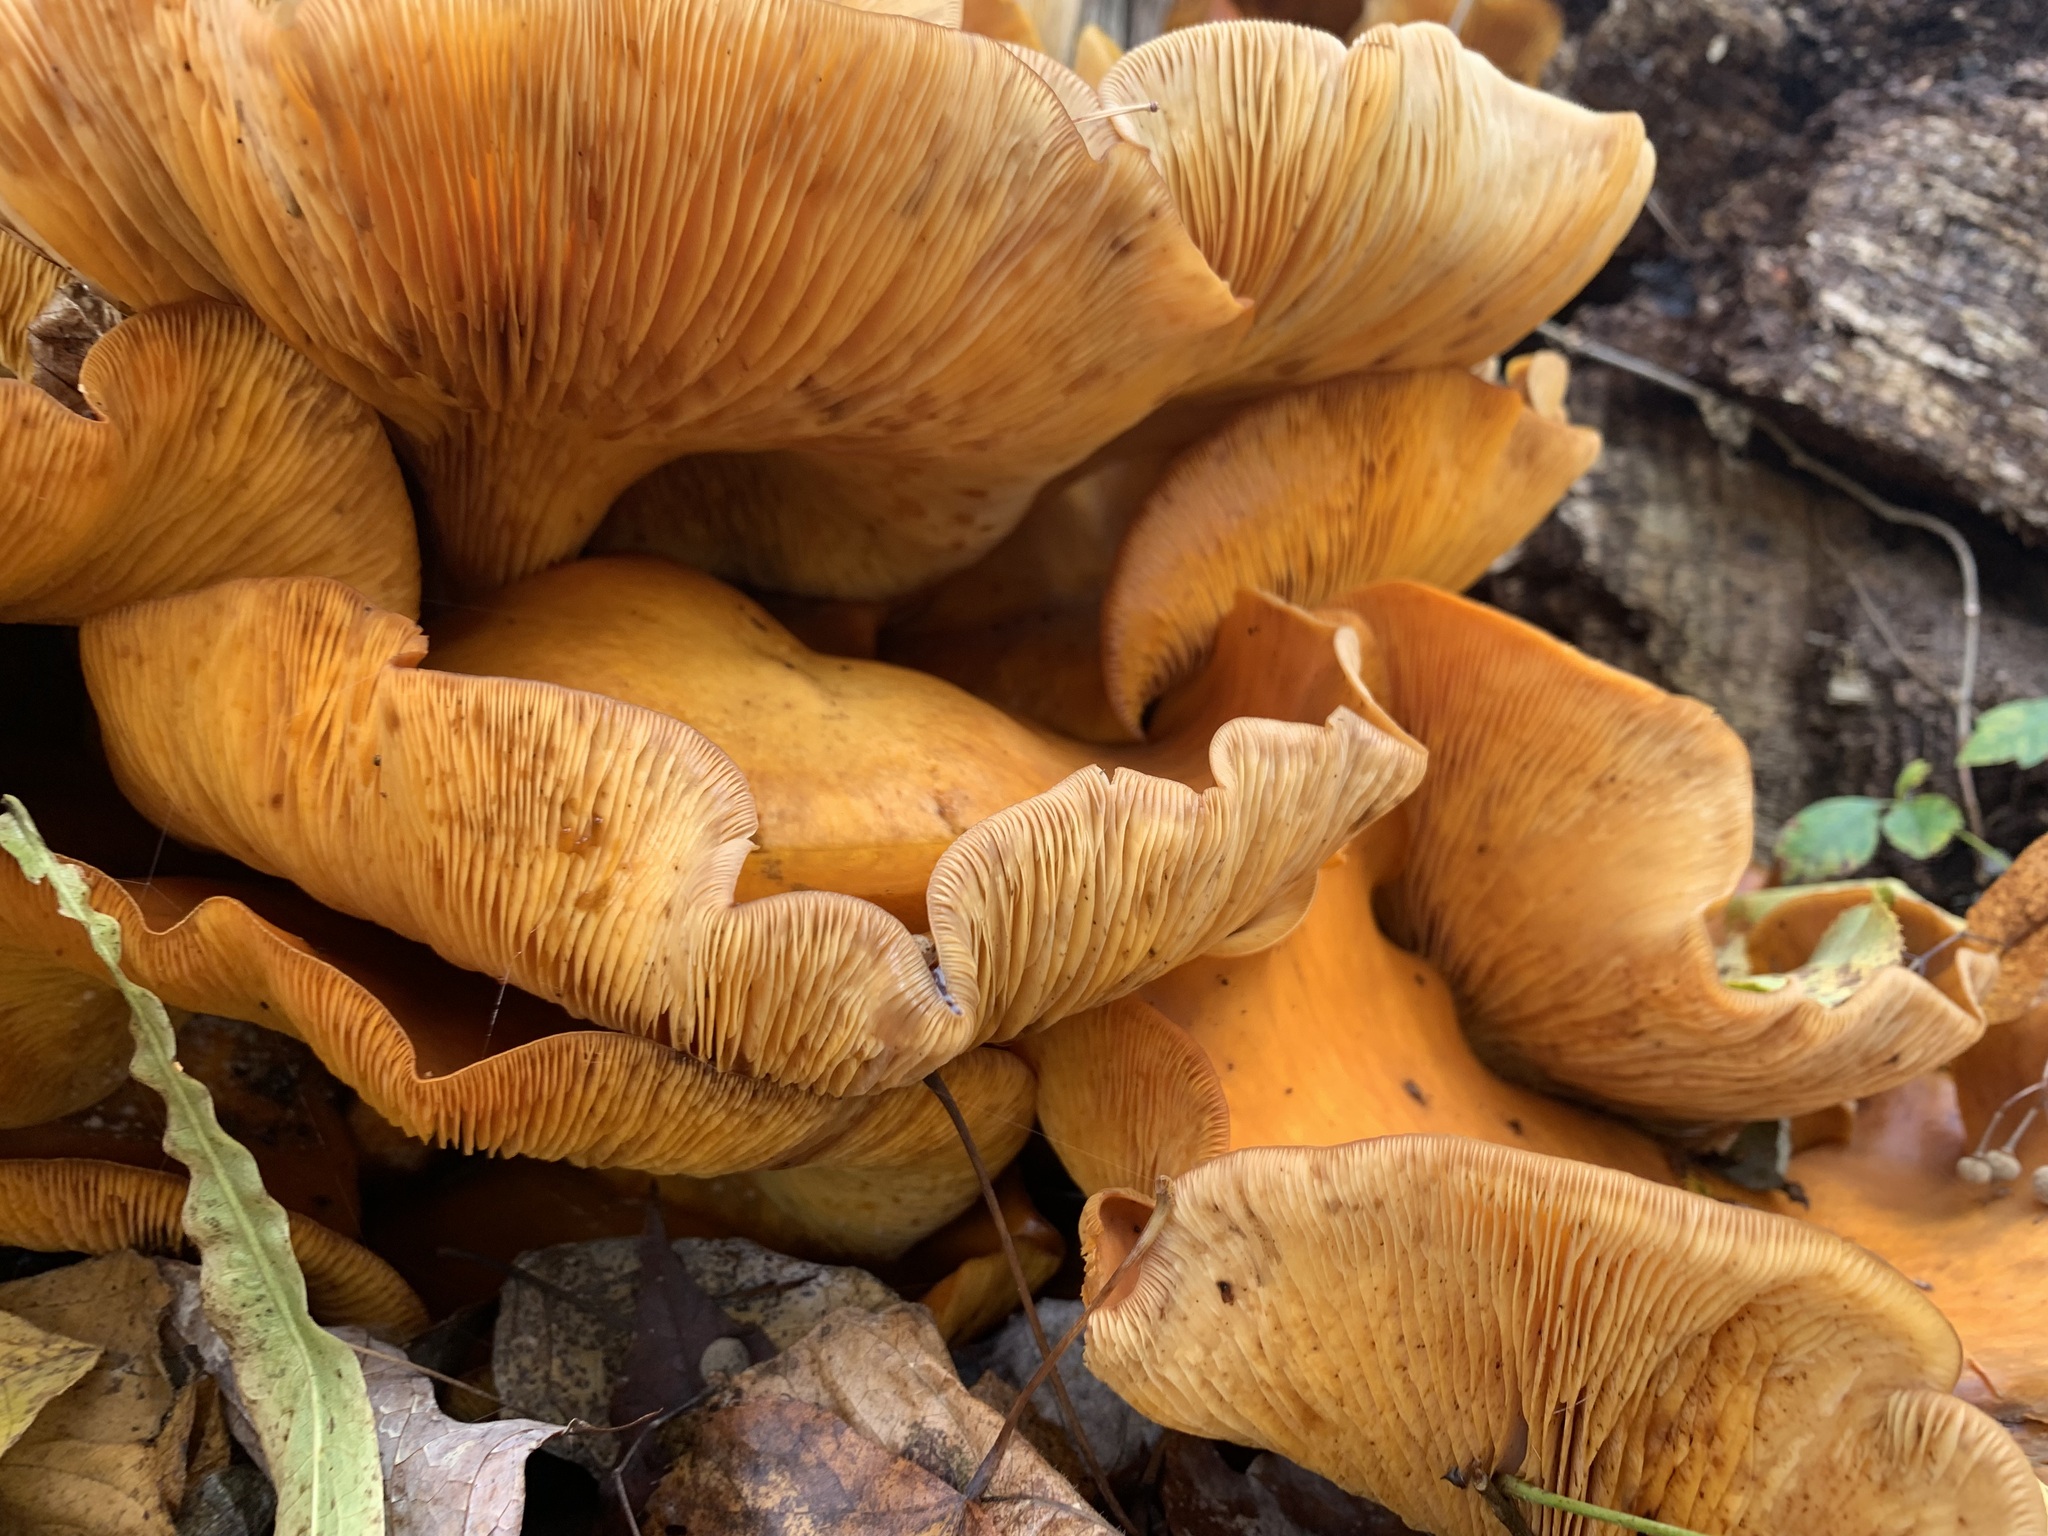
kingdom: Fungi
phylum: Basidiomycota
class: Agaricomycetes
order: Agaricales
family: Omphalotaceae
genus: Omphalotus
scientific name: Omphalotus illudens
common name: Jack o lantern
